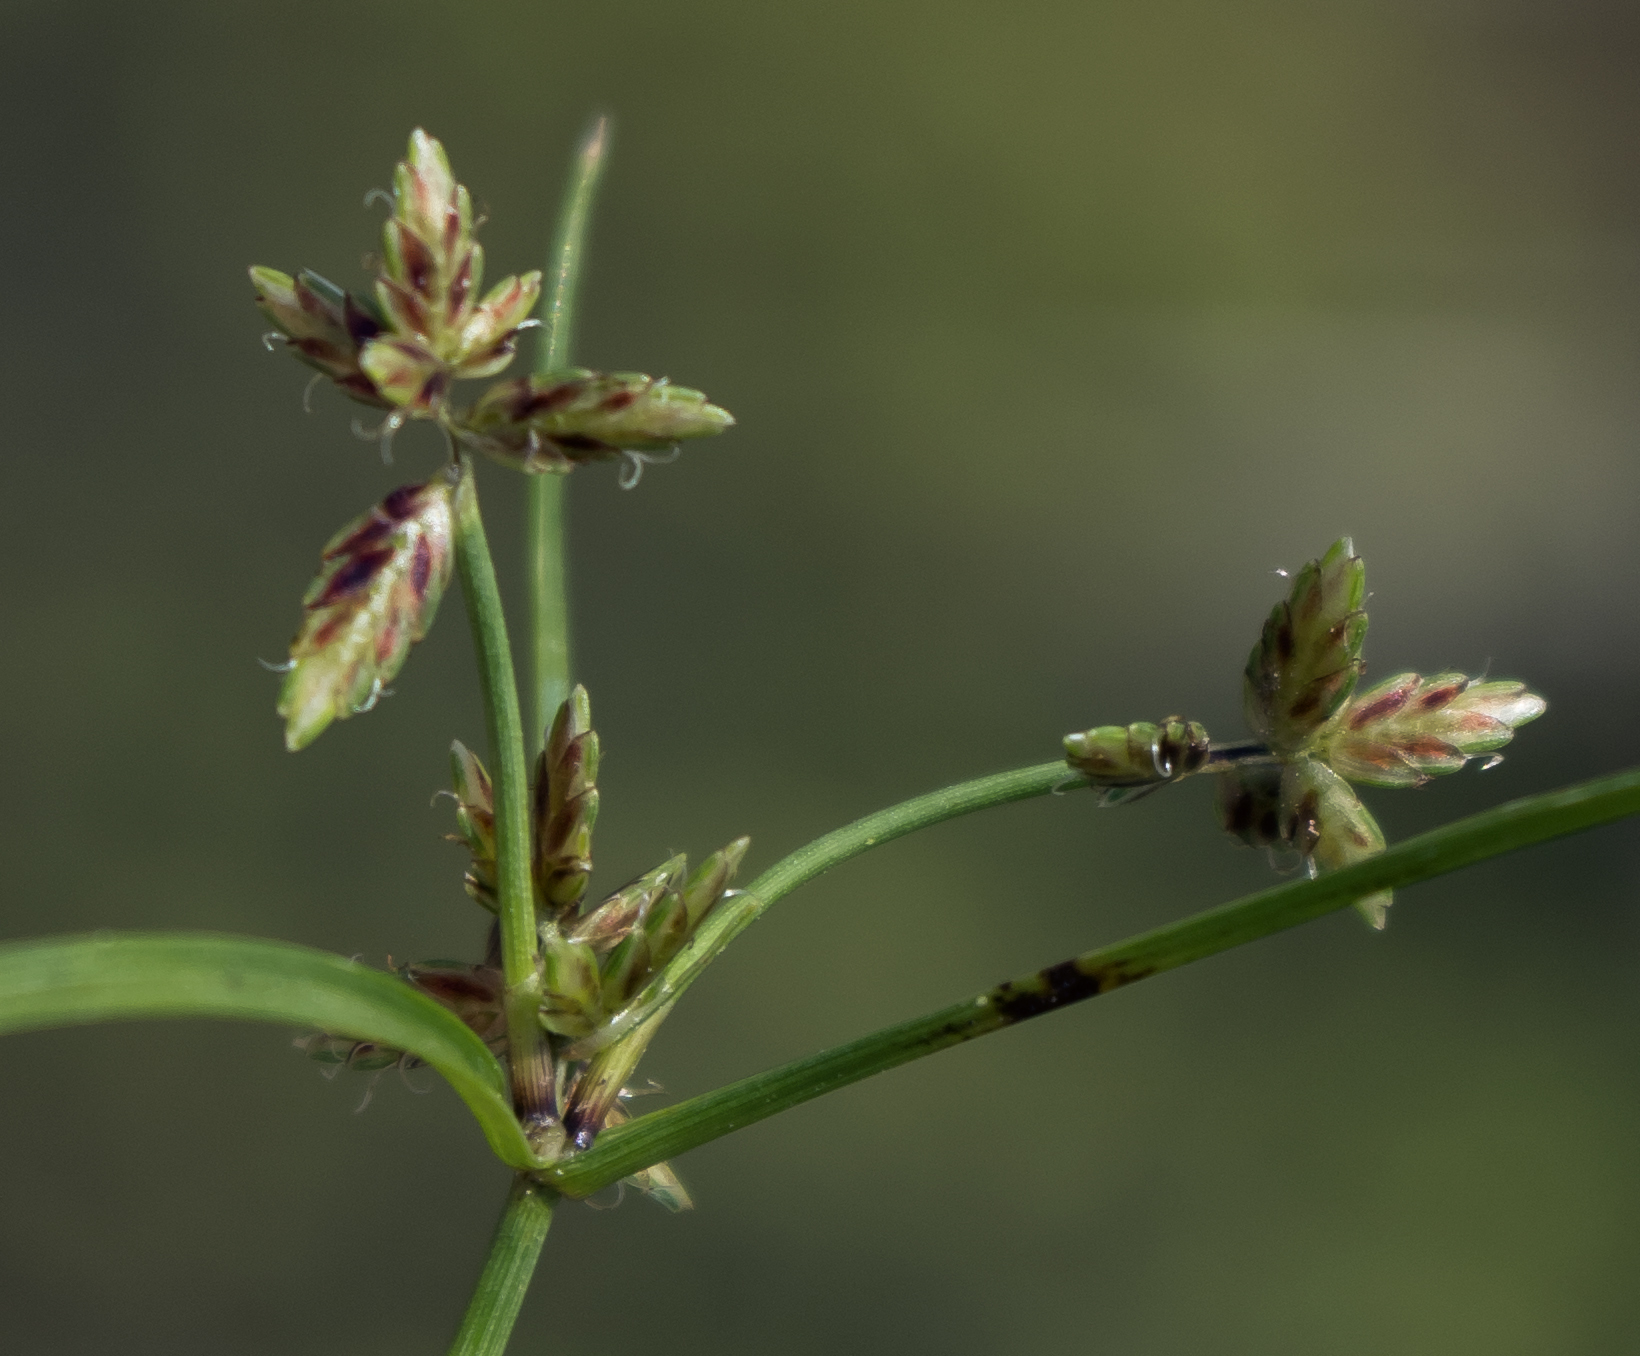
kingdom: Plantae
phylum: Tracheophyta
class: Liliopsida
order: Poales
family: Cyperaceae
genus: Cyperus
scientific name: Cyperus bipartitus
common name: Brook flatsedge
